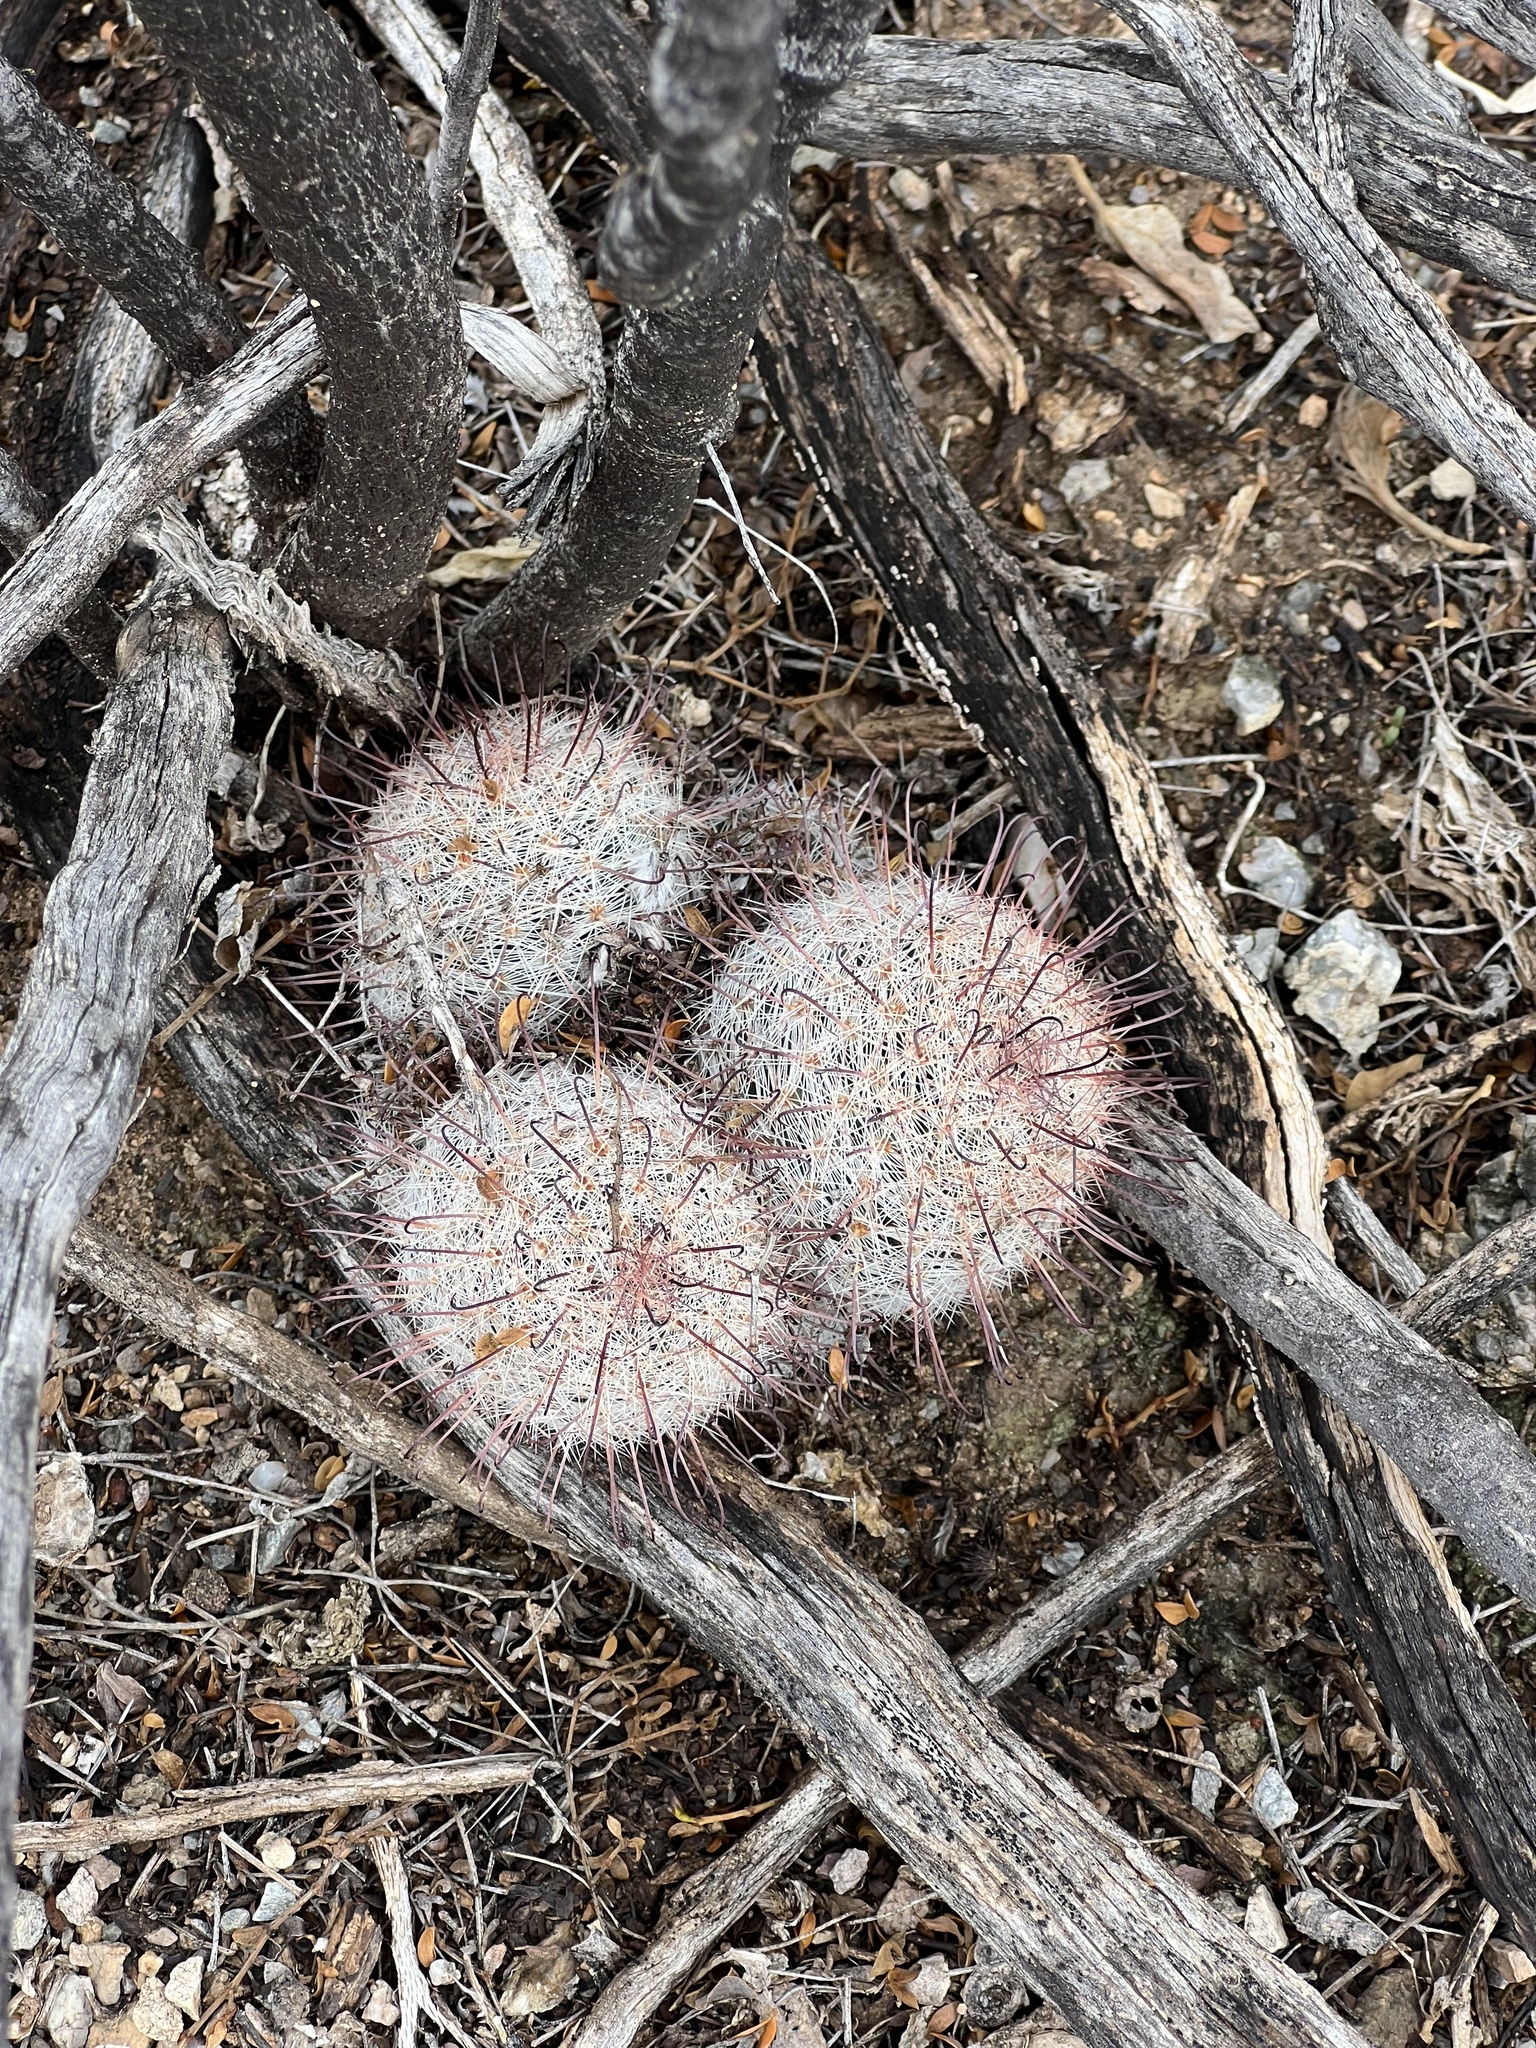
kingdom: Plantae
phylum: Tracheophyta
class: Magnoliopsida
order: Caryophyllales
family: Cactaceae
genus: Cochemiea
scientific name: Cochemiea grahamii
